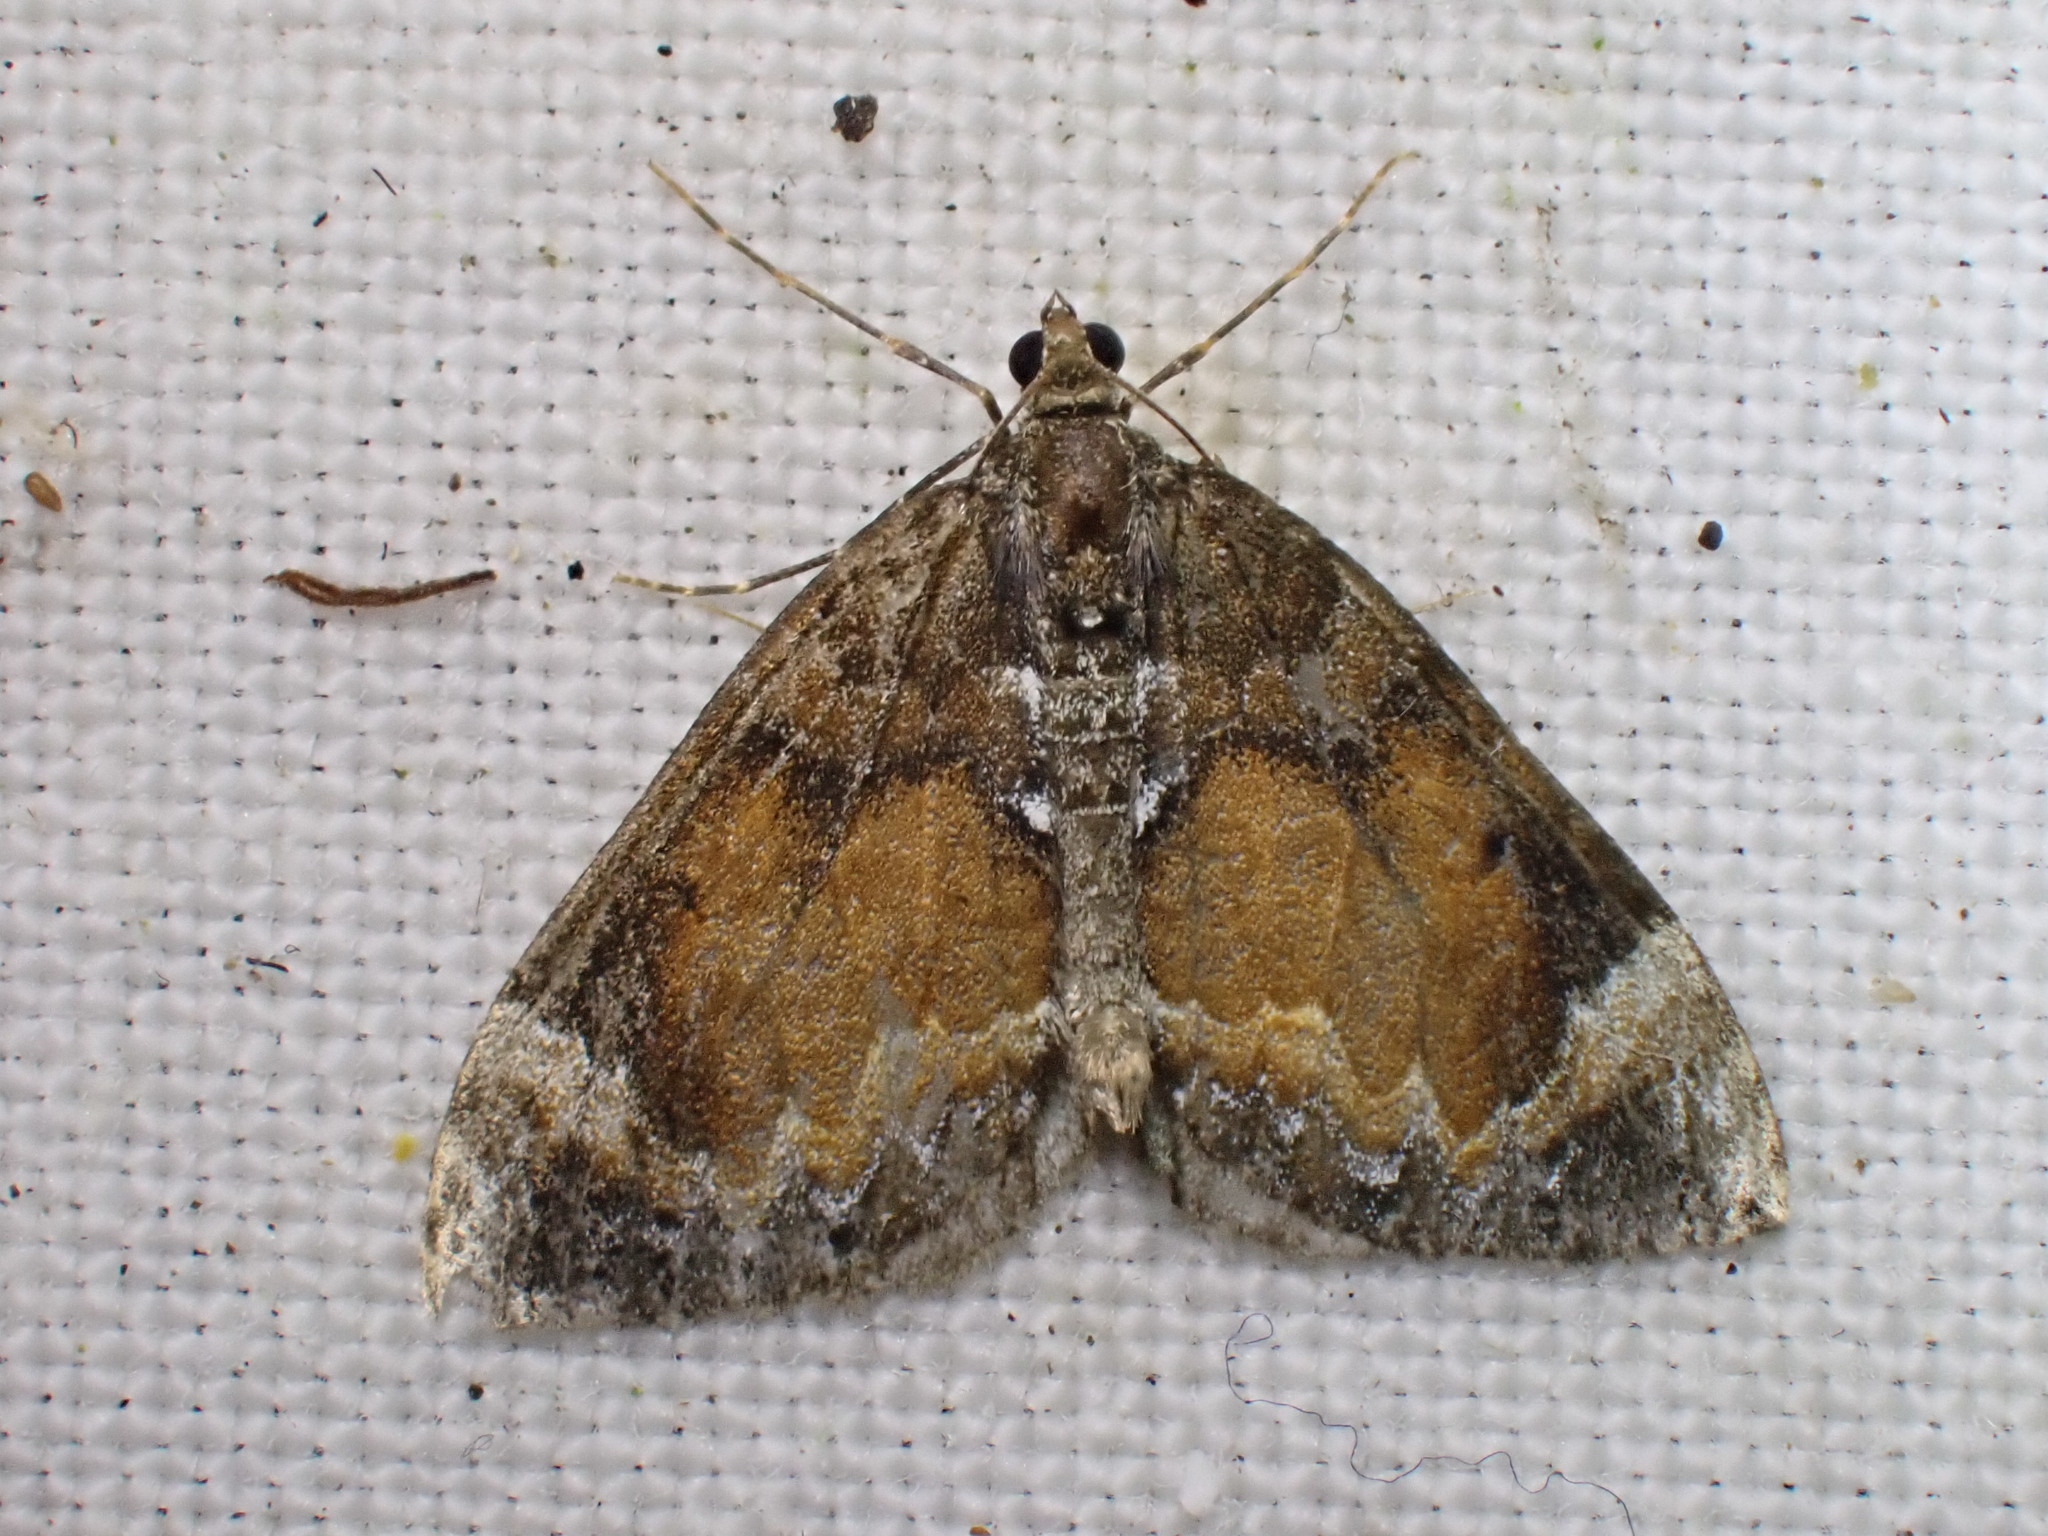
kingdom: Animalia
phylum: Arthropoda
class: Insecta
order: Lepidoptera
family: Geometridae
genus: Dysstroma
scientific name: Dysstroma truncata
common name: Common marbled carpet
